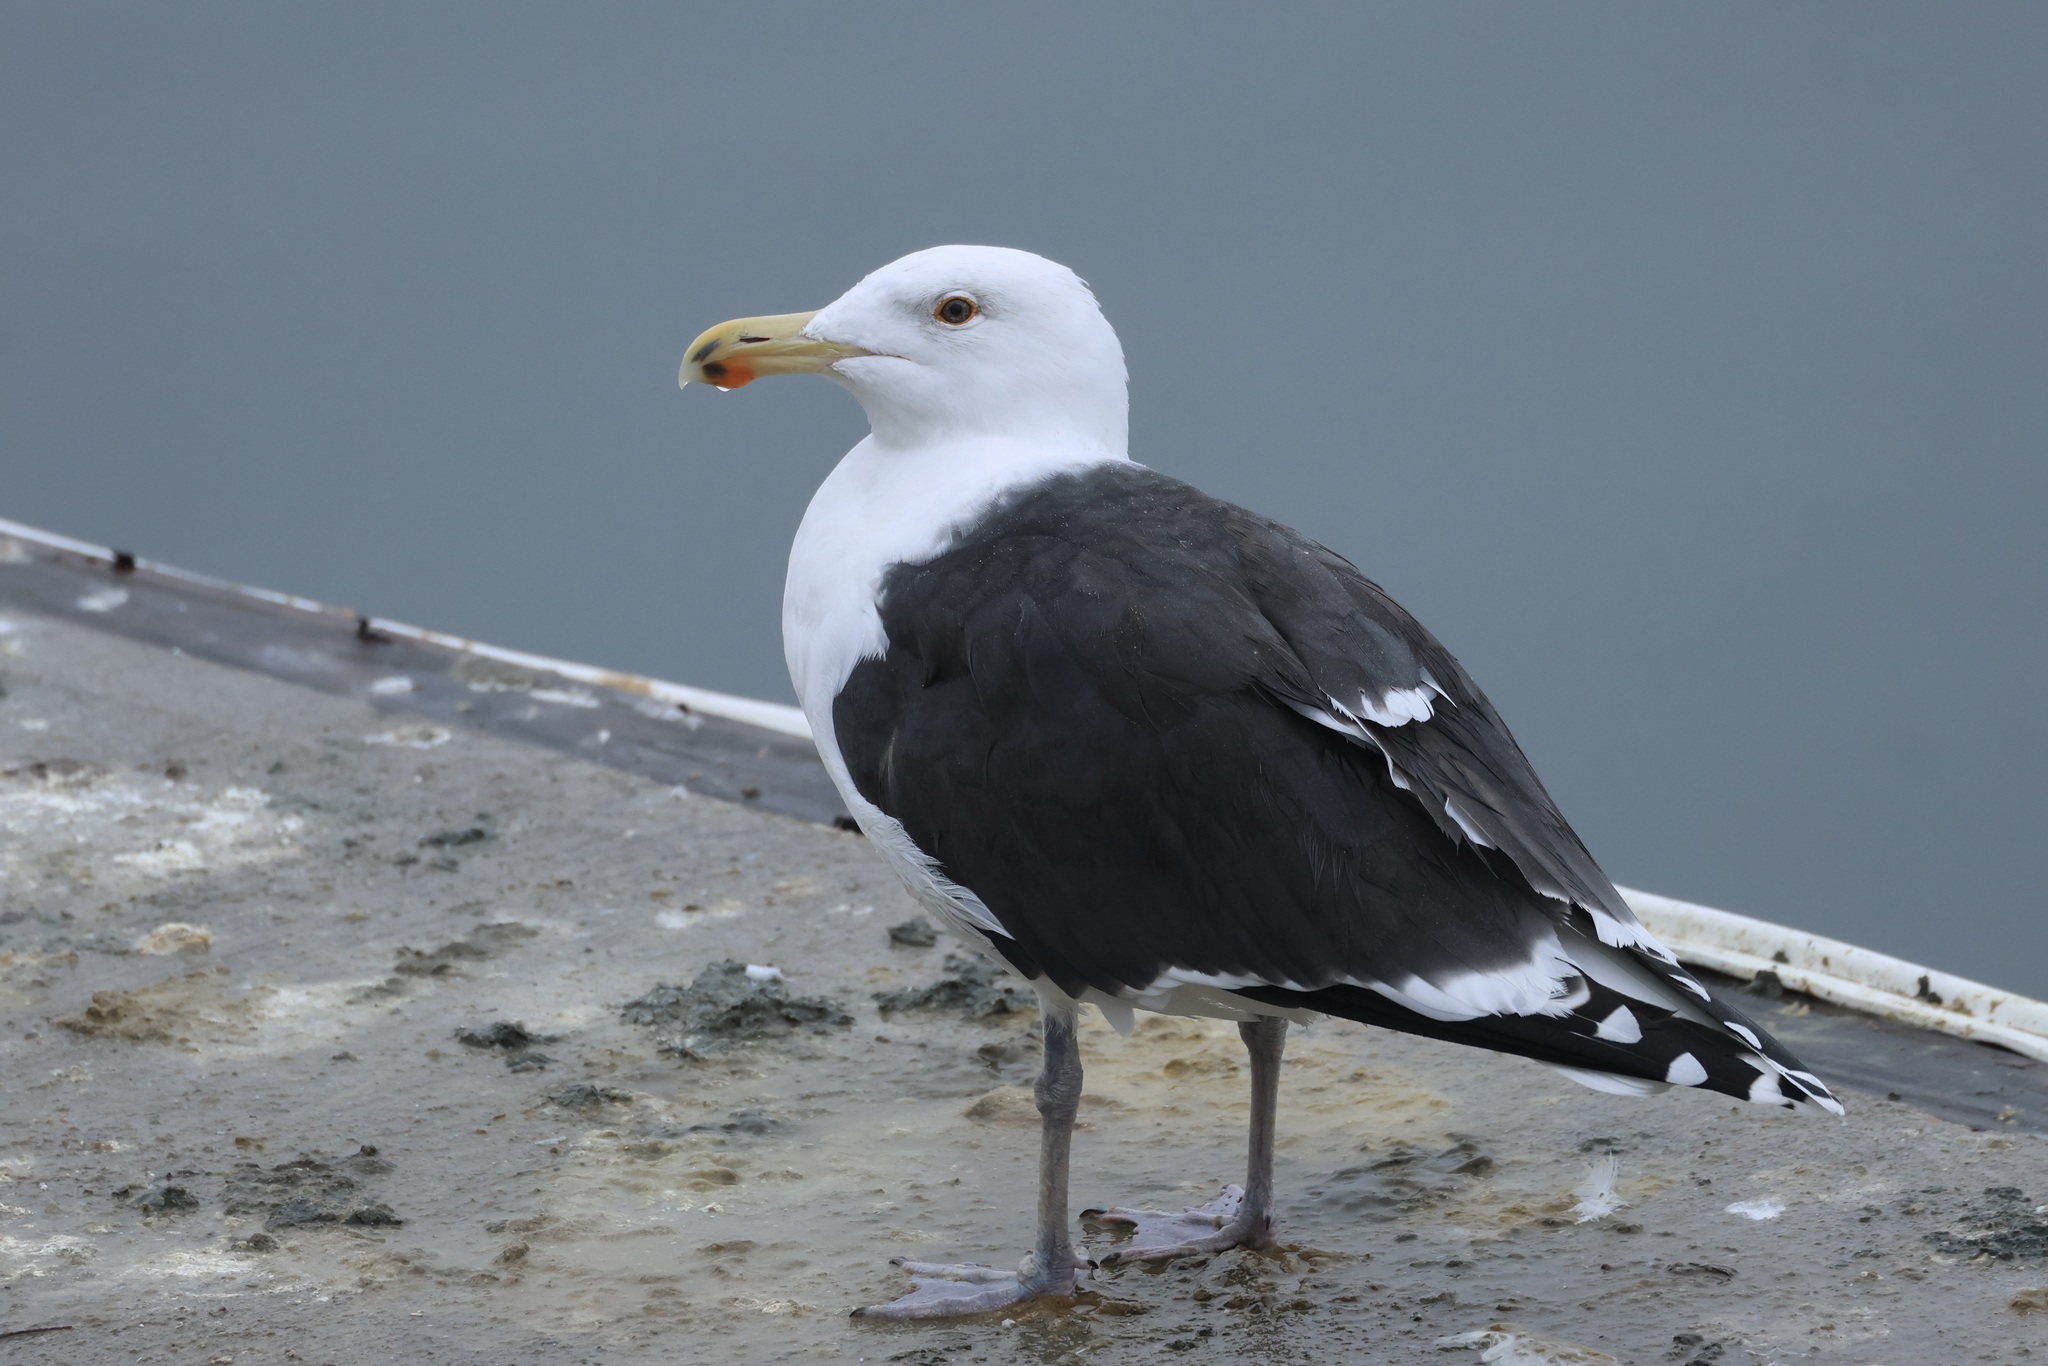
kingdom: Animalia
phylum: Chordata
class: Aves
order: Charadriiformes
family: Laridae
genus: Larus
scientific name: Larus marinus
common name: Great black-backed gull
